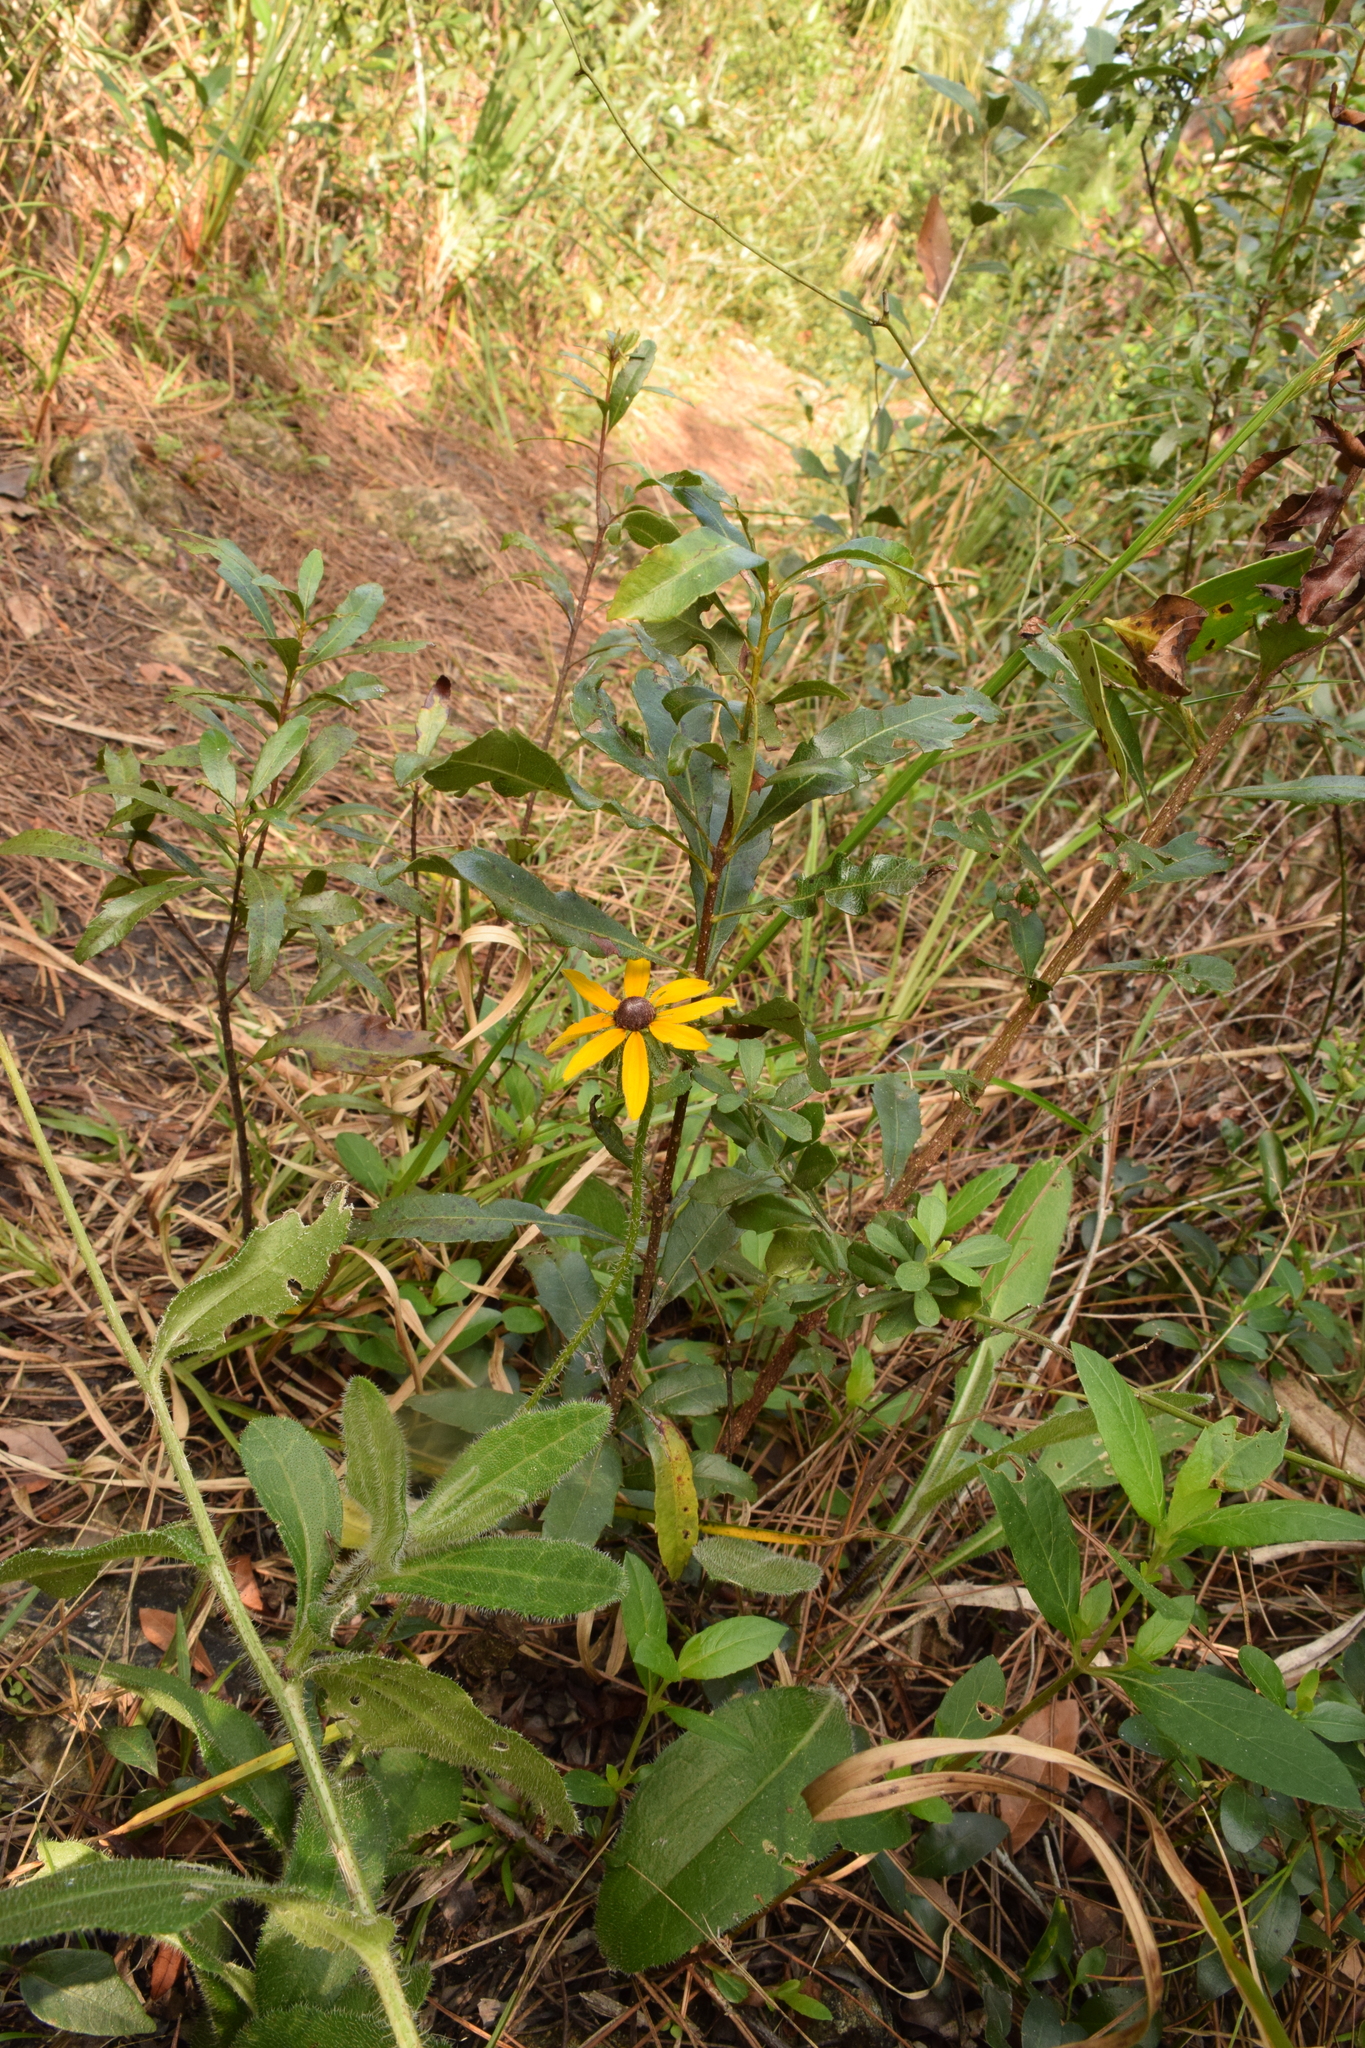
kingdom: Plantae
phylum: Tracheophyta
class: Magnoliopsida
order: Asterales
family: Asteraceae
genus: Rudbeckia
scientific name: Rudbeckia hirta
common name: Black-eyed-susan
